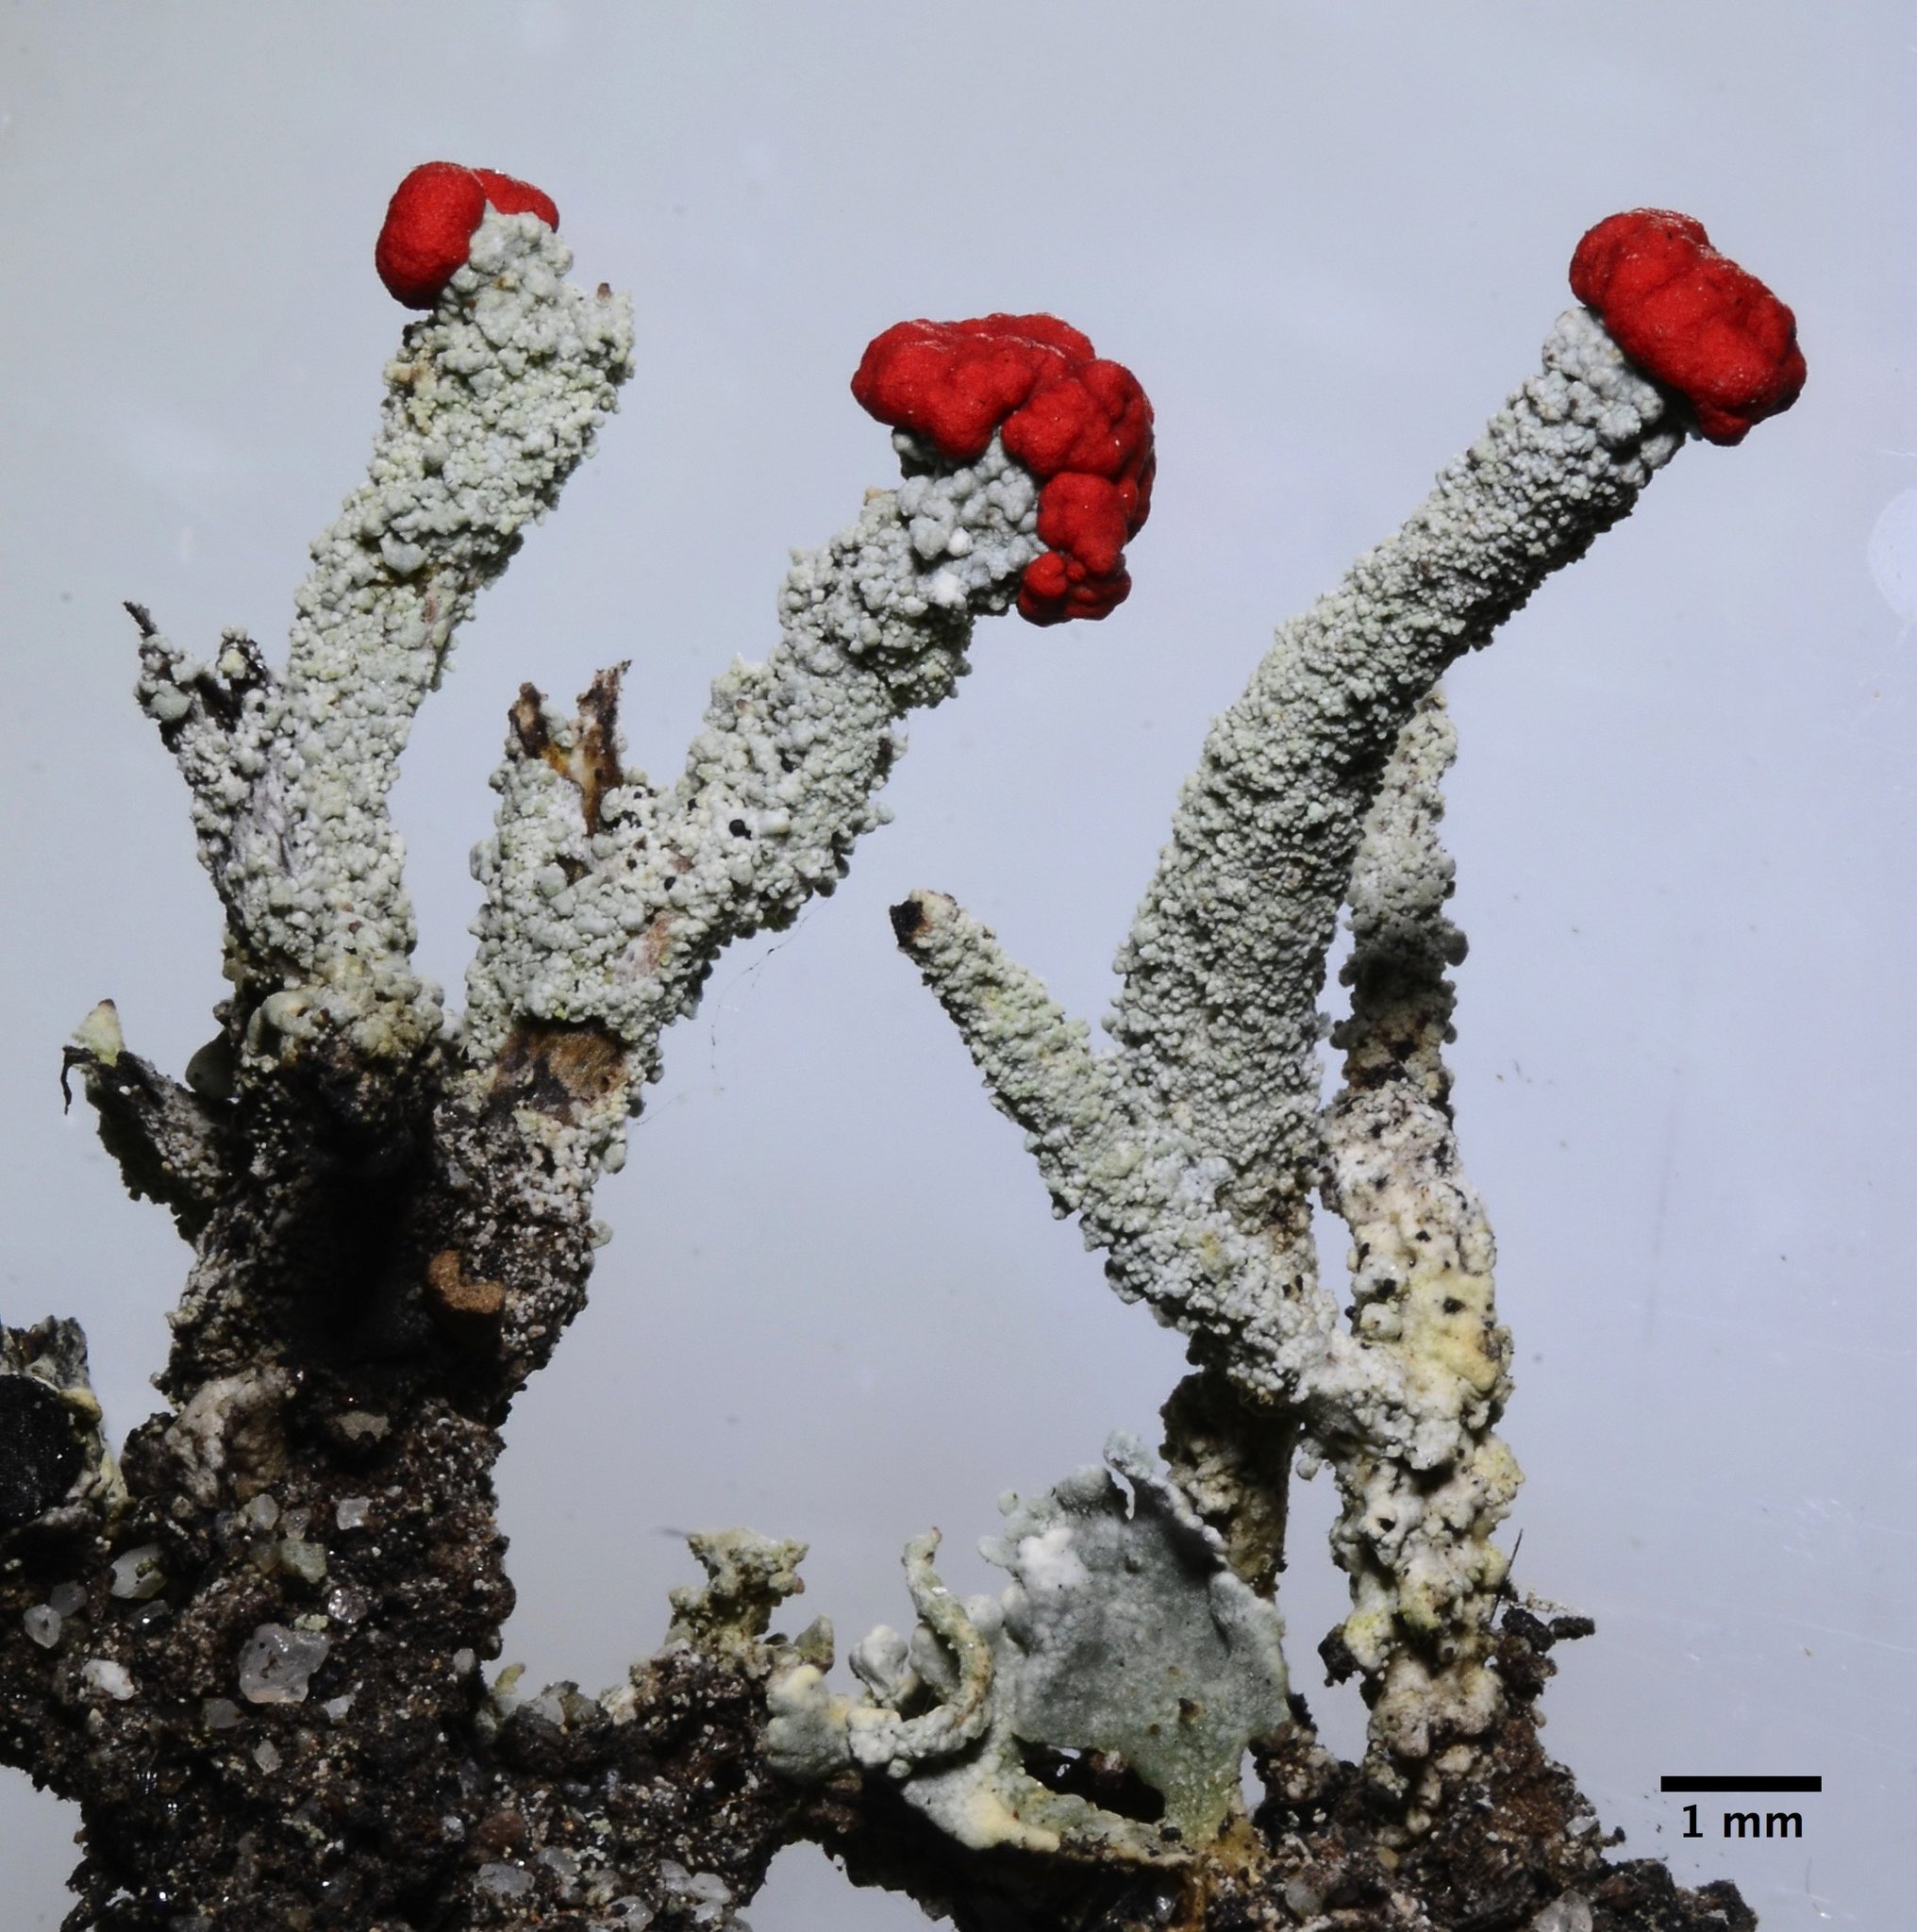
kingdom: Fungi
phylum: Ascomycota
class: Lecanoromycetes
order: Lecanorales
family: Cladoniaceae
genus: Cladonia
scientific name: Cladonia macilenta
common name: Lipstick powderhorn
